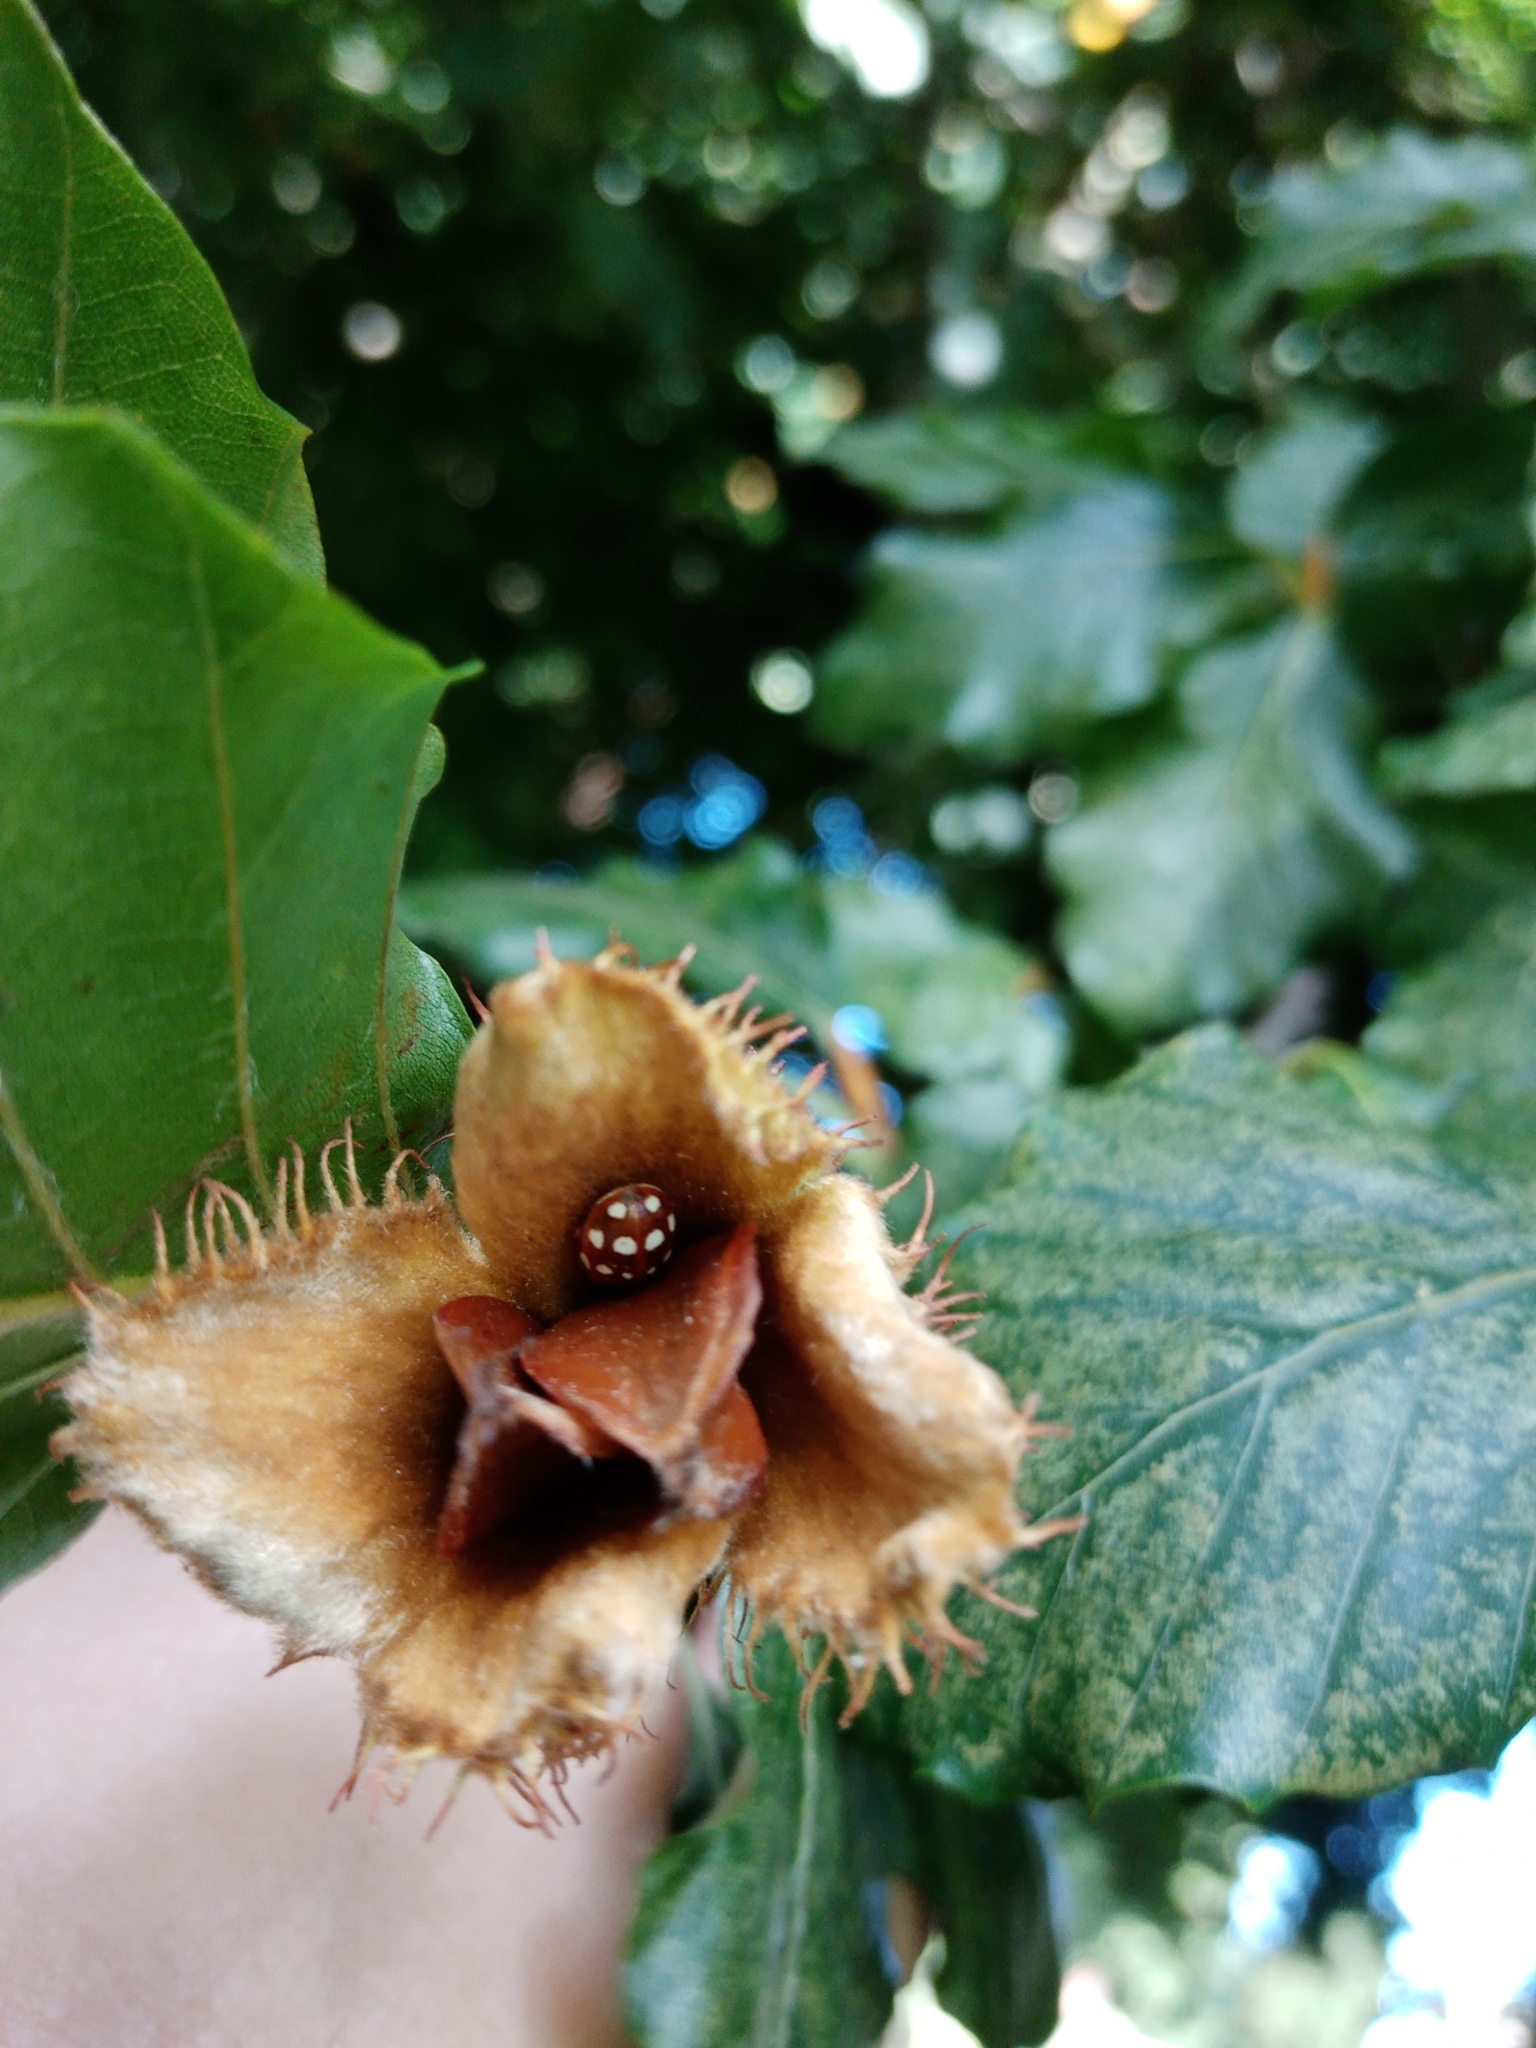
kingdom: Animalia
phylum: Arthropoda
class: Insecta
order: Coleoptera
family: Coccinellidae
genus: Calvia
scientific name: Calvia quatuordecimguttata
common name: Cream-spot ladybird
